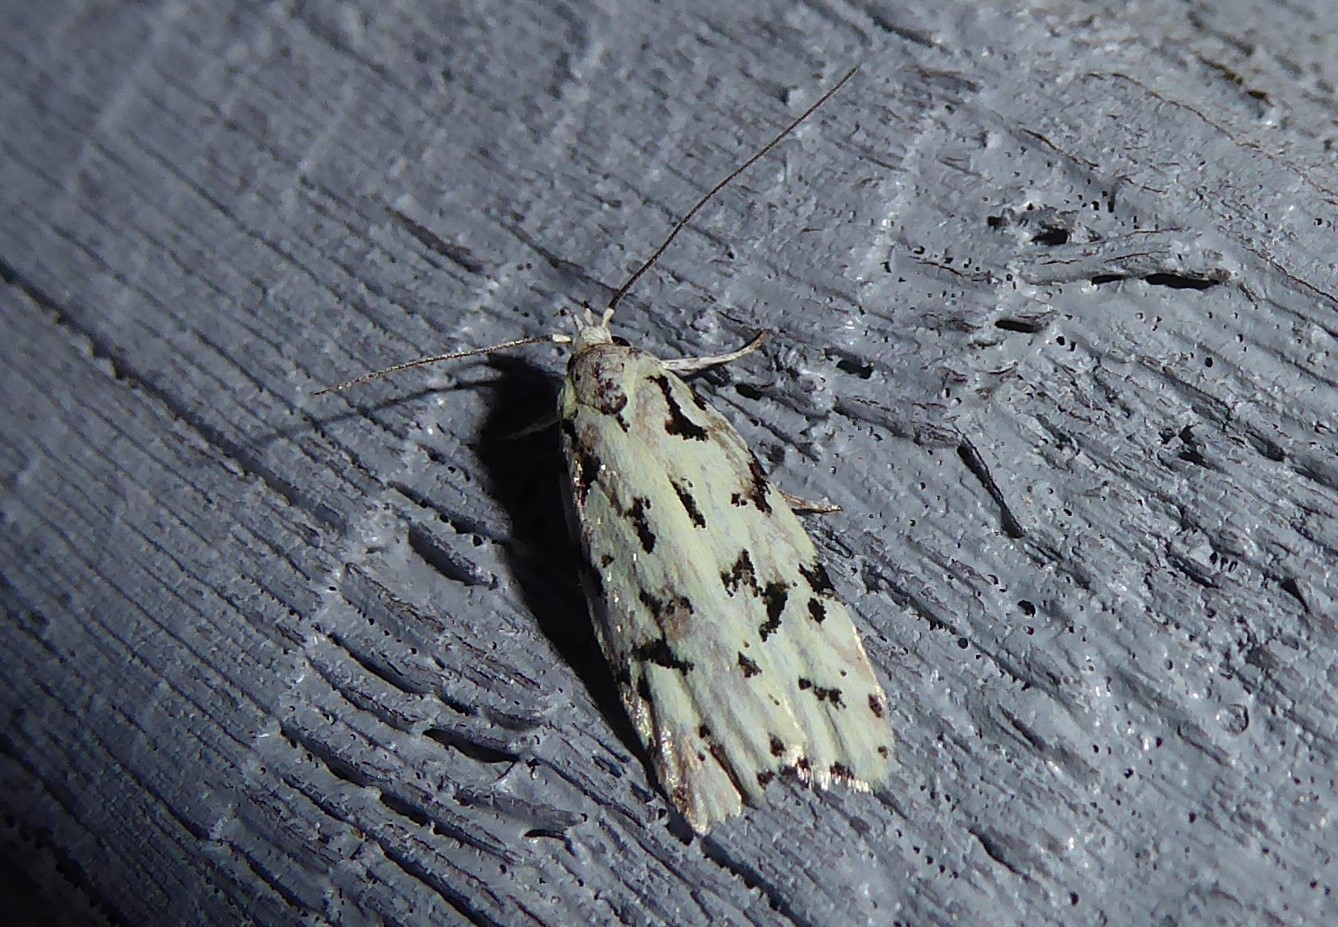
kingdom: Animalia
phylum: Arthropoda
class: Insecta
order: Lepidoptera
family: Oecophoridae
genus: Izatha
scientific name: Izatha huttoni
